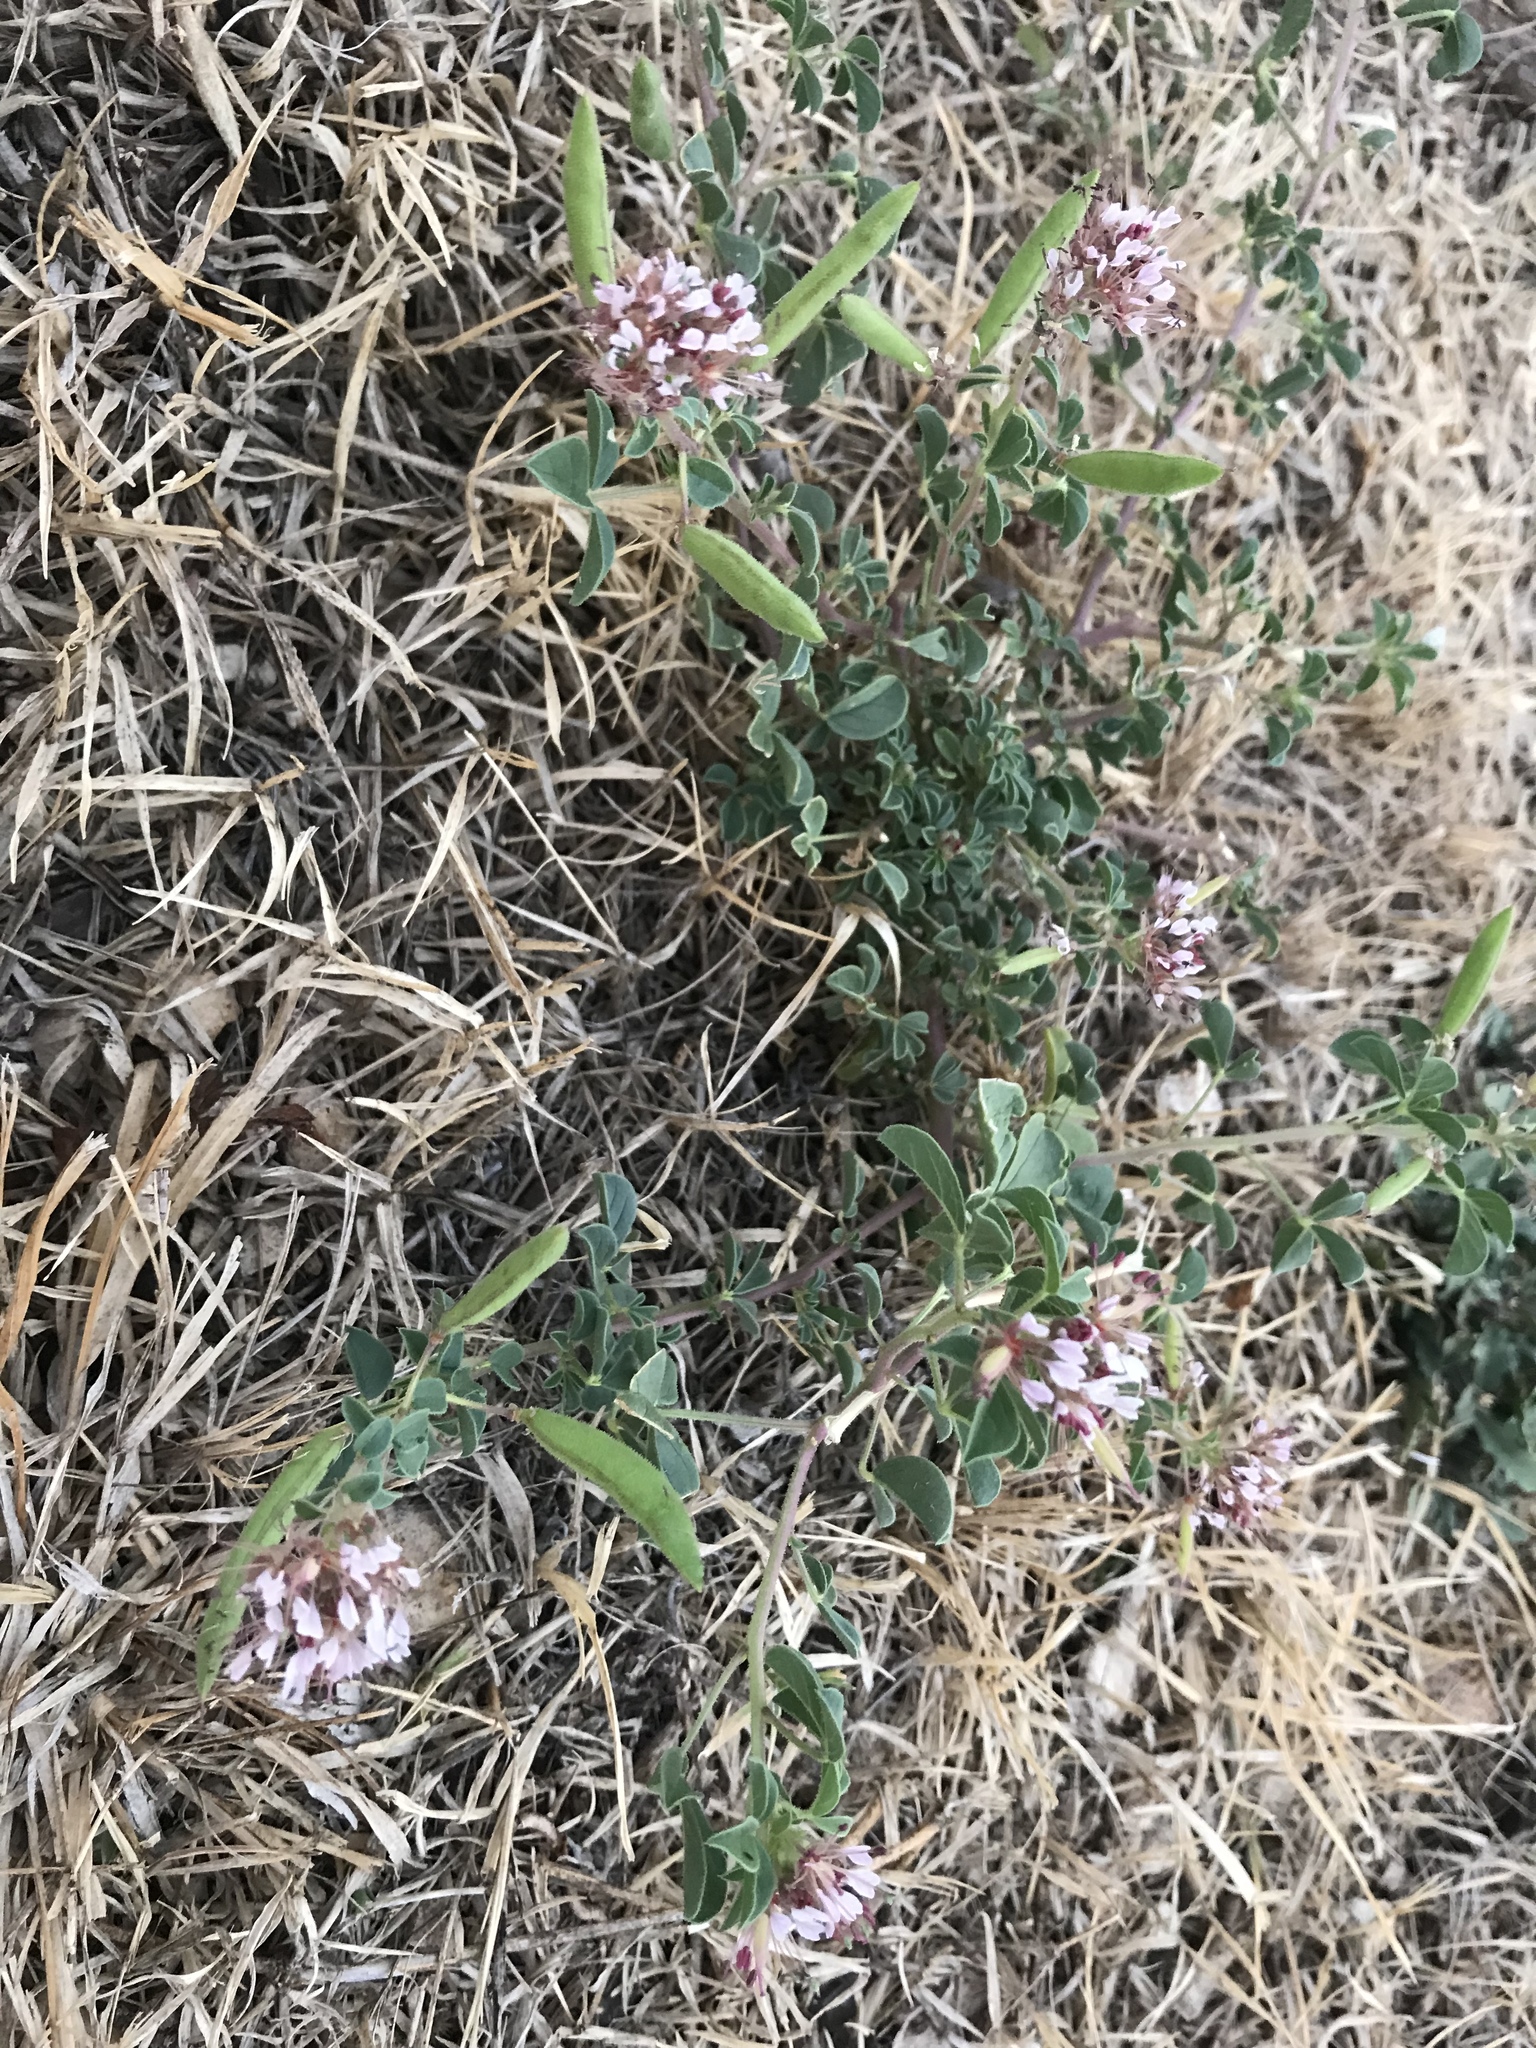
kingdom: Plantae
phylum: Tracheophyta
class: Magnoliopsida
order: Brassicales
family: Cleomaceae
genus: Polanisia
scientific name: Polanisia dodecandra
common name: Clammyweed
